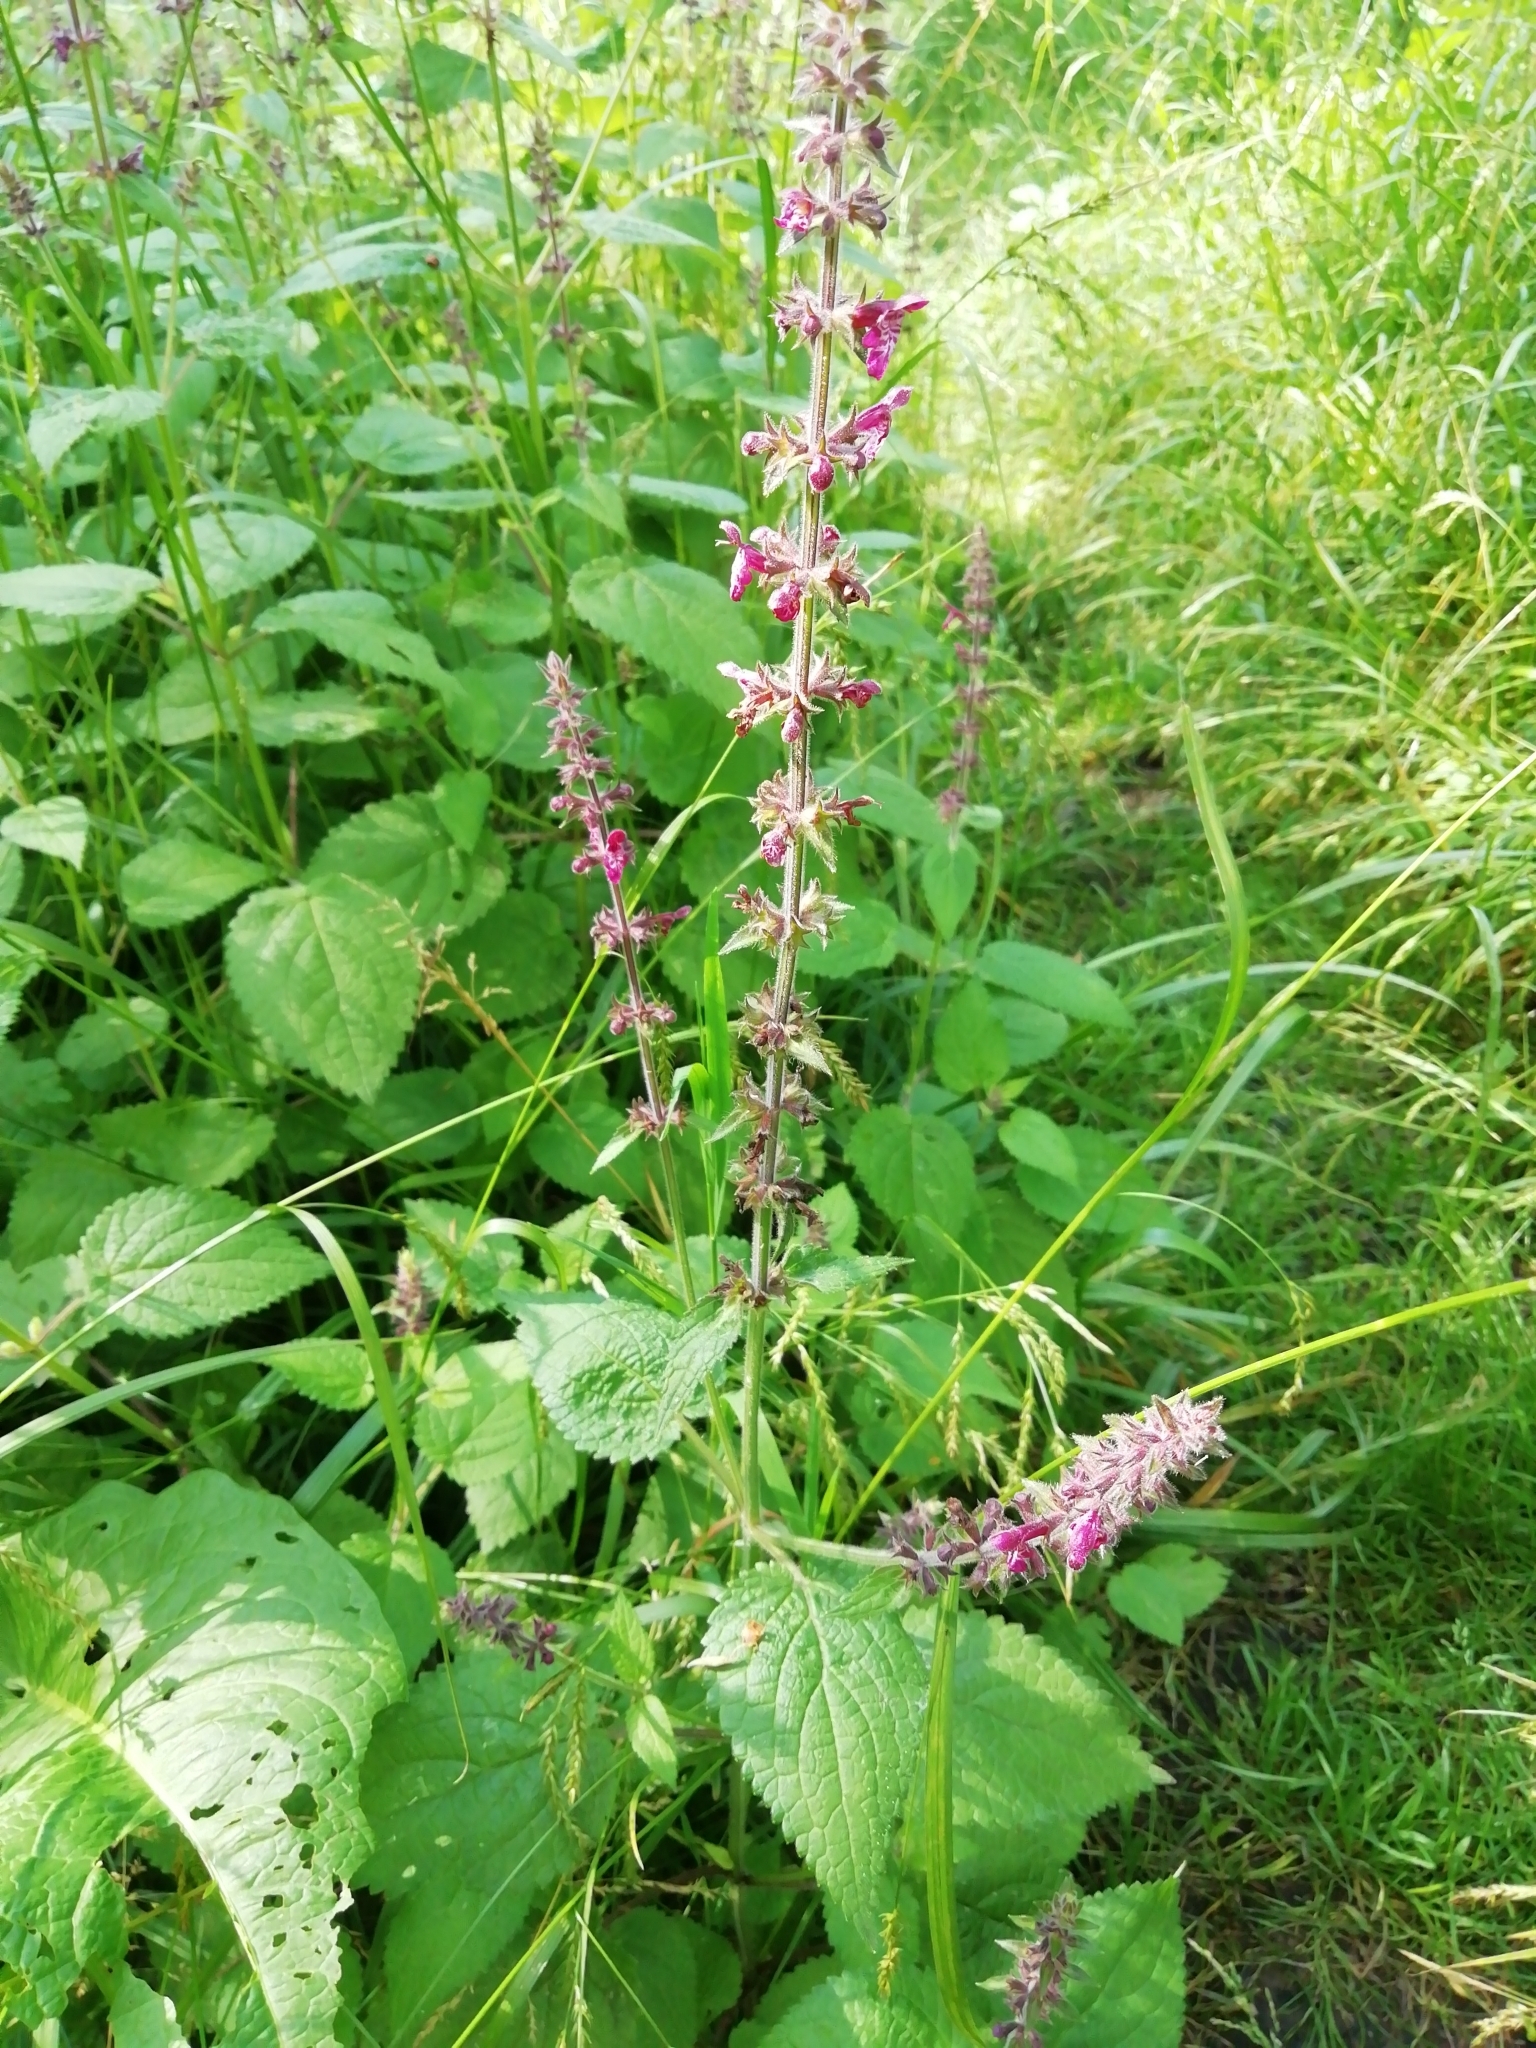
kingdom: Plantae
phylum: Tracheophyta
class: Magnoliopsida
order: Lamiales
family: Lamiaceae
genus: Stachys
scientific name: Stachys sylvatica
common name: Hedge woundwort
